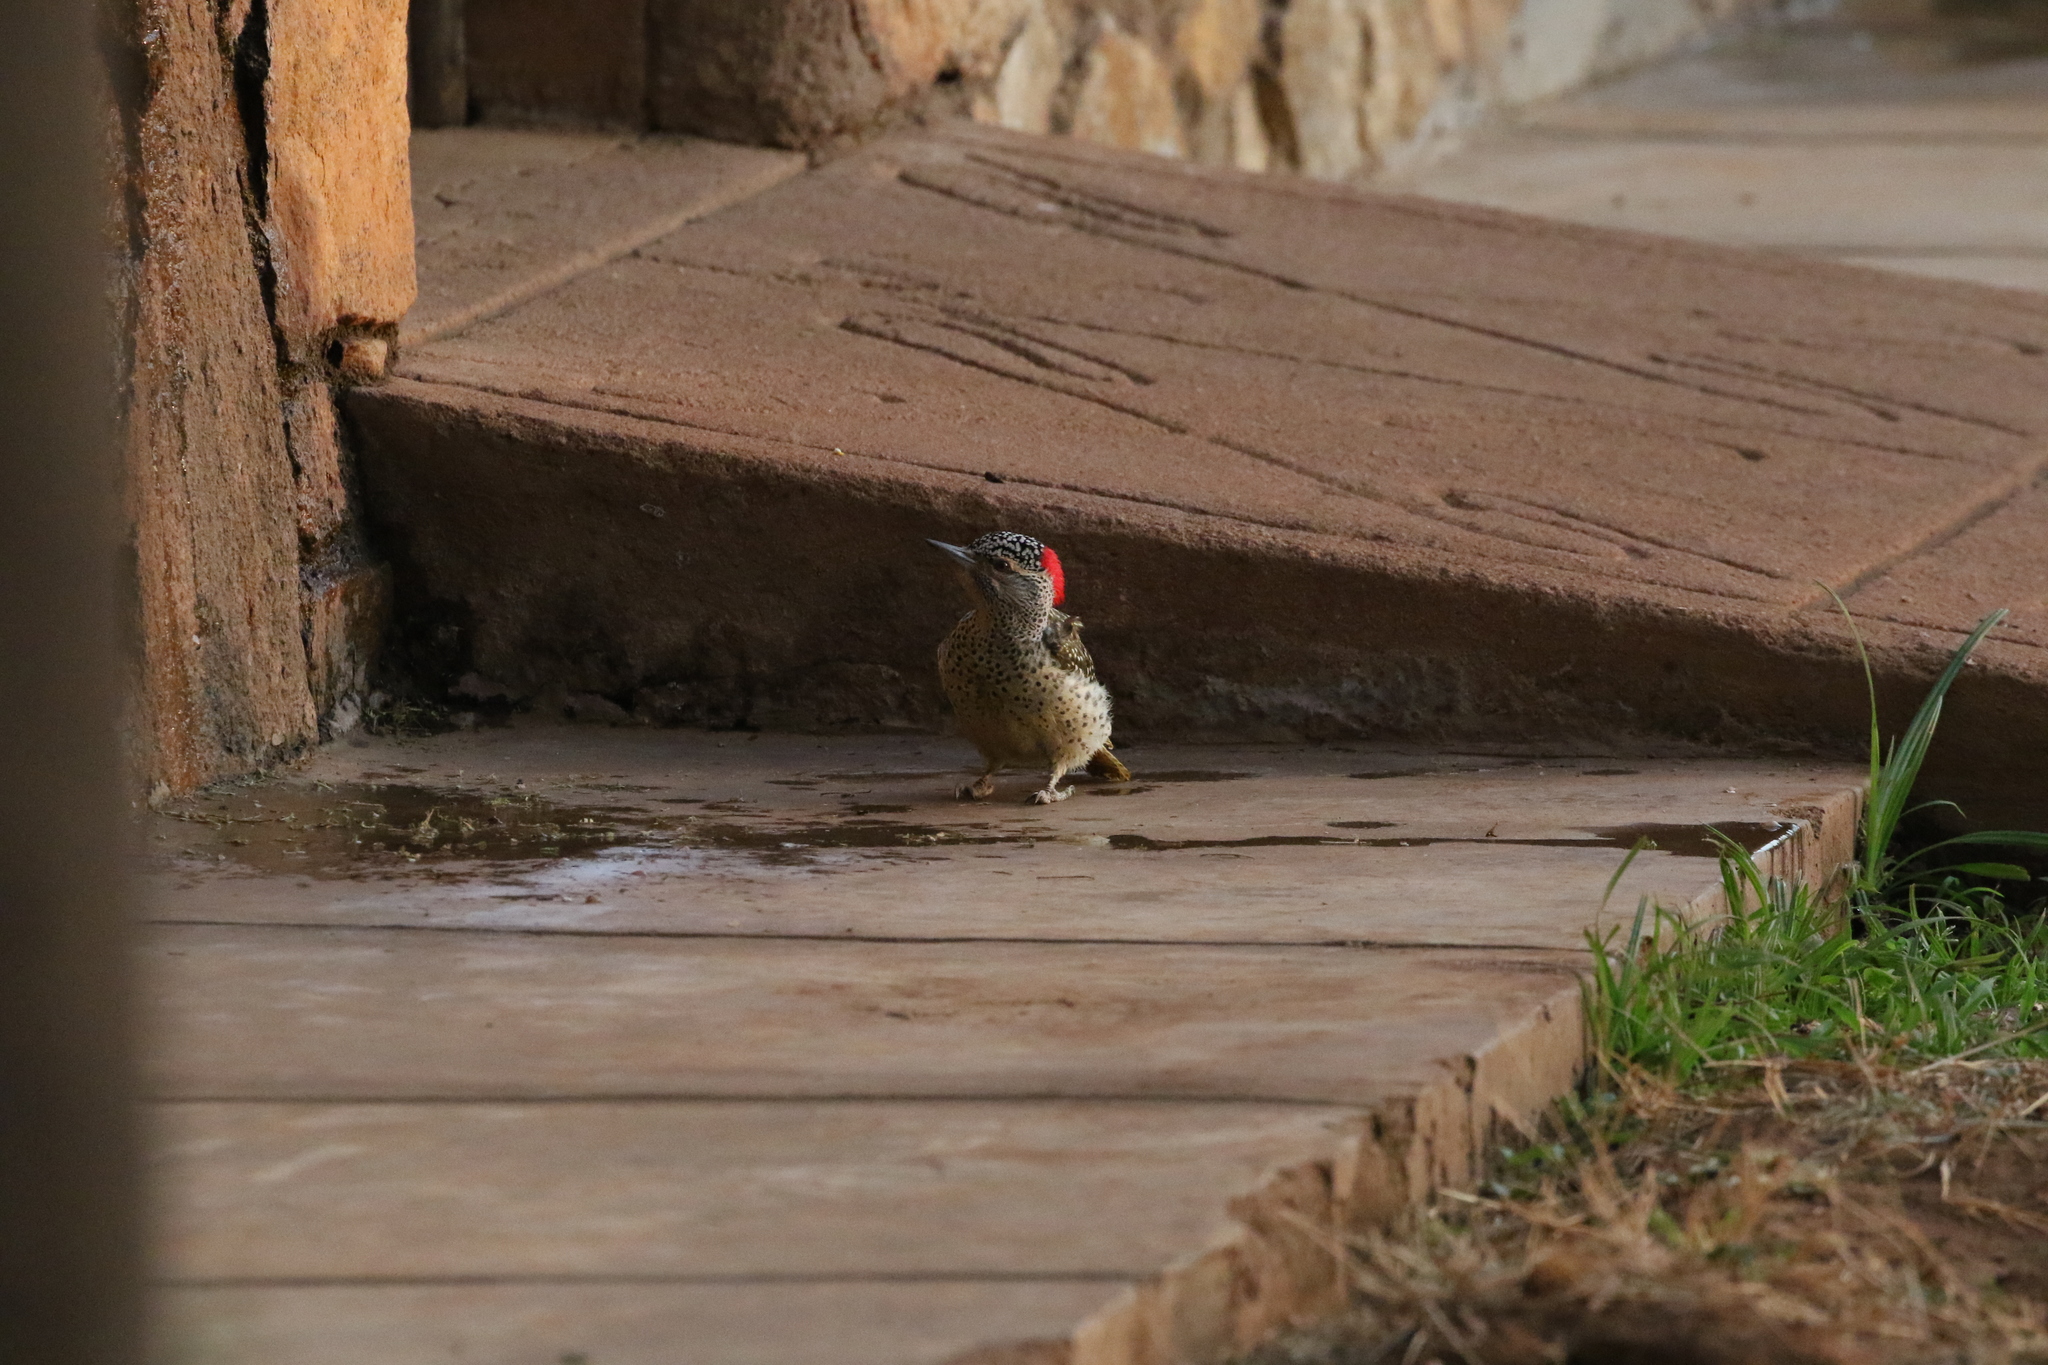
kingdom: Animalia
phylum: Chordata
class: Aves
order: Piciformes
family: Picidae
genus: Campethera
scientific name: Campethera nubica
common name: Nubian woodpecker
